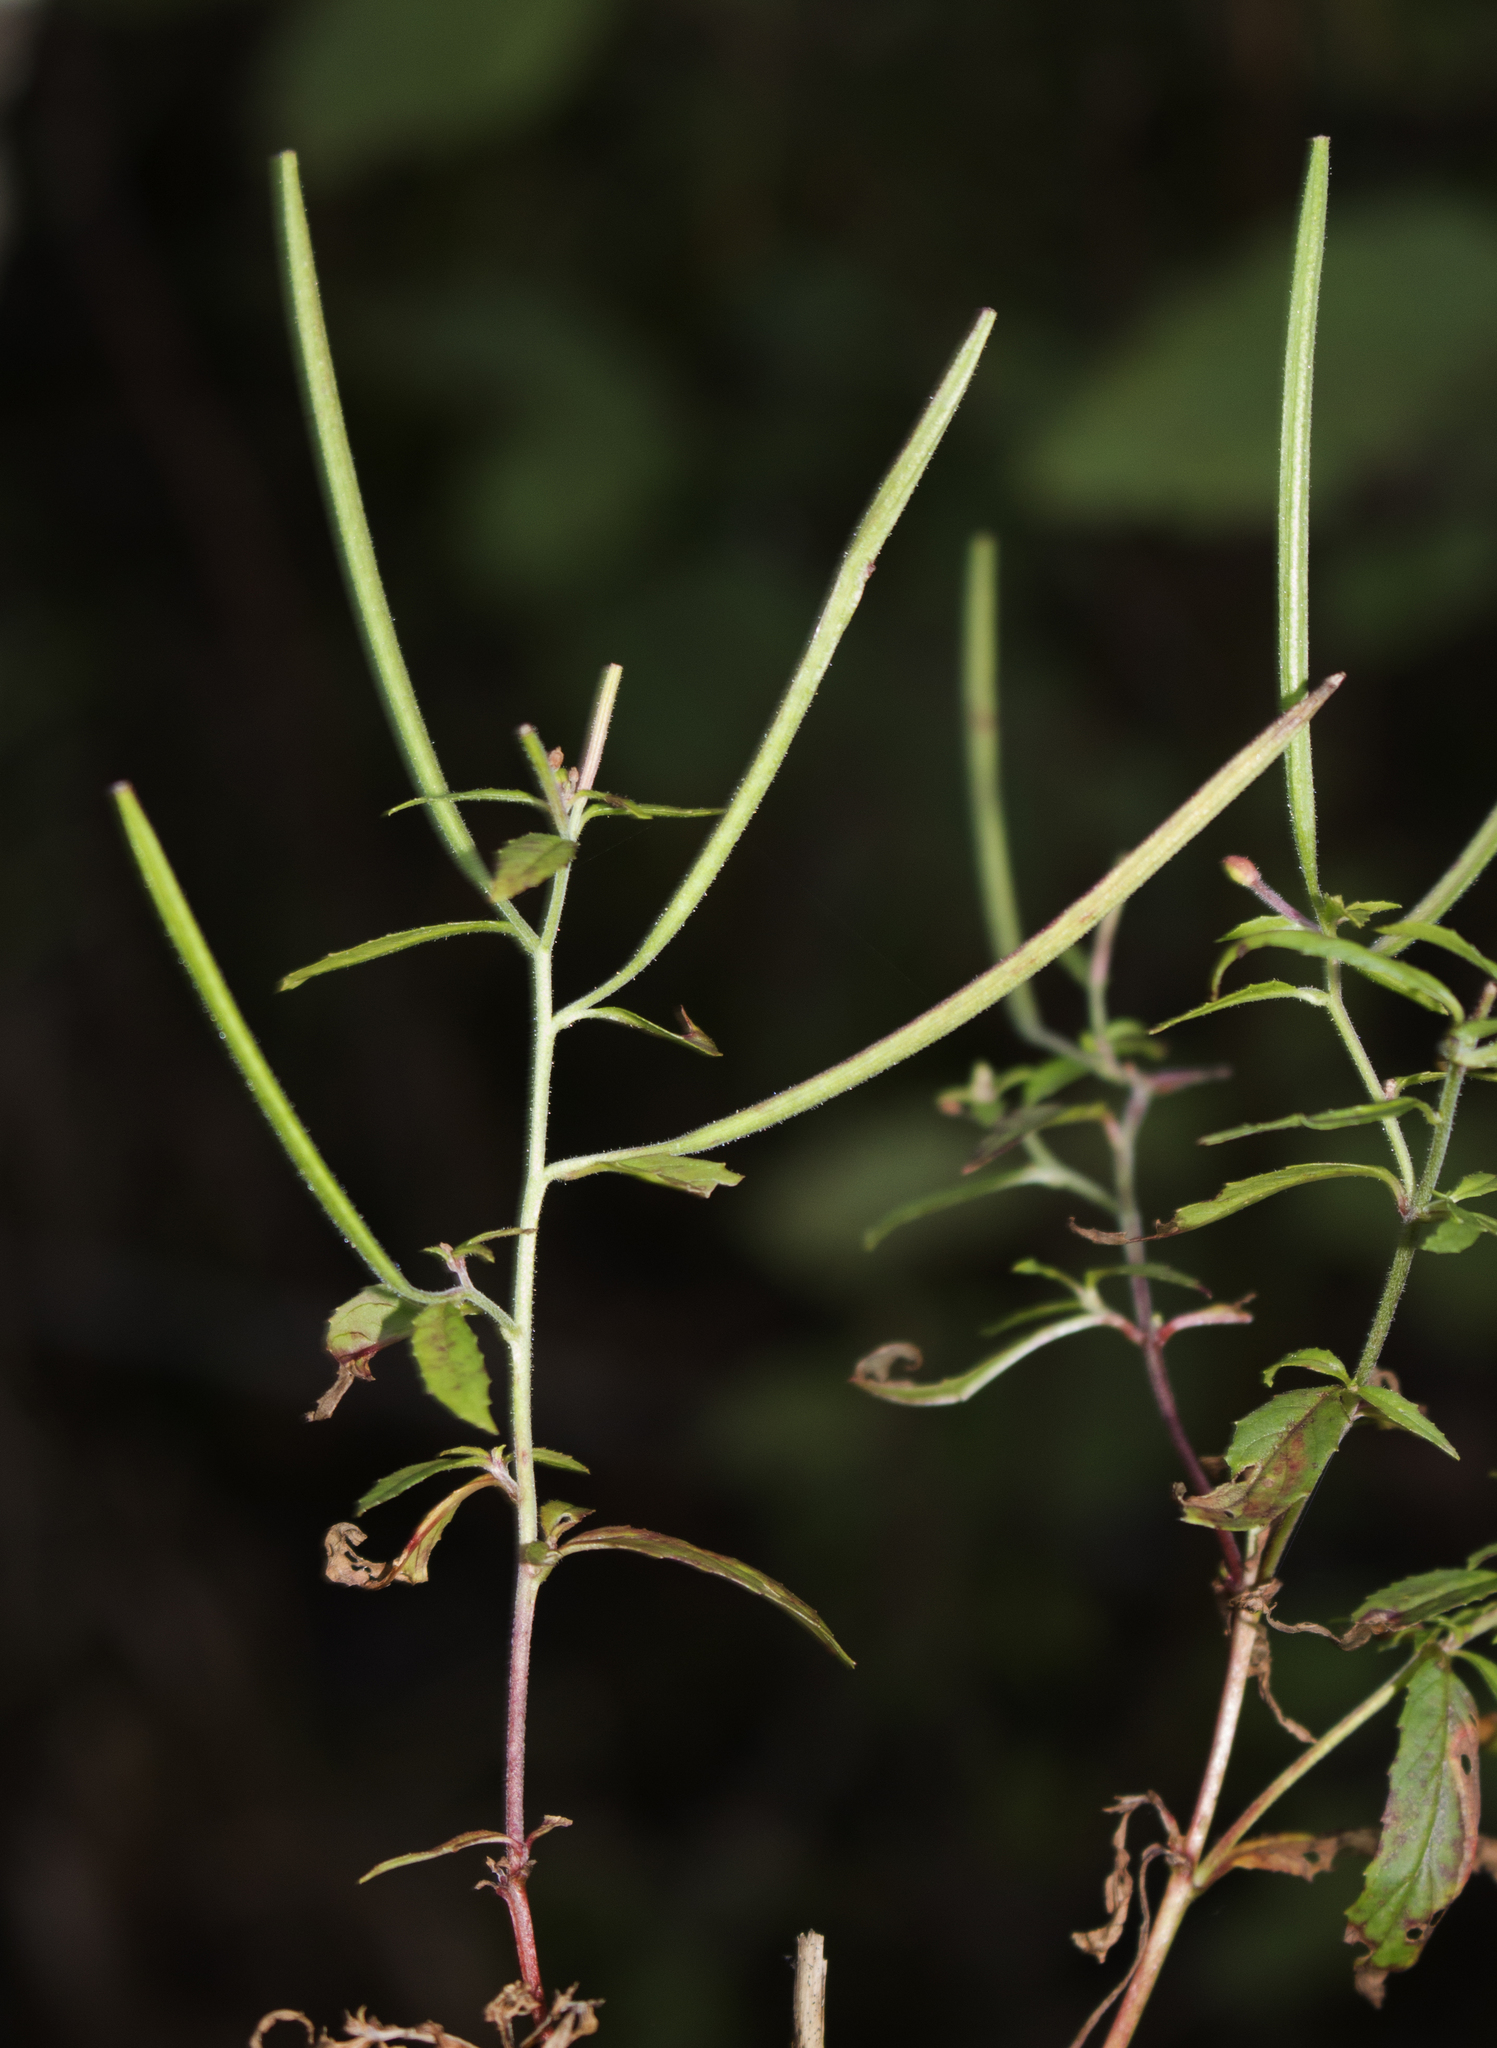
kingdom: Plantae
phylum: Tracheophyta
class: Magnoliopsida
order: Myrtales
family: Onagraceae
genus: Epilobium
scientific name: Epilobium coloratum
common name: Bronze willowherb
